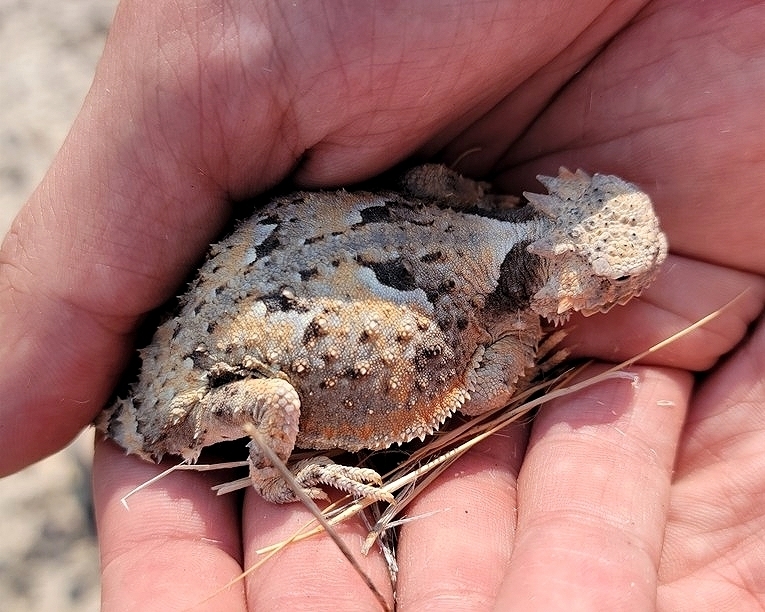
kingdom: Animalia
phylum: Chordata
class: Squamata
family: Phrynosomatidae
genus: Phrynosoma
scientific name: Phrynosoma platyrhinos
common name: Desert horned lizard
